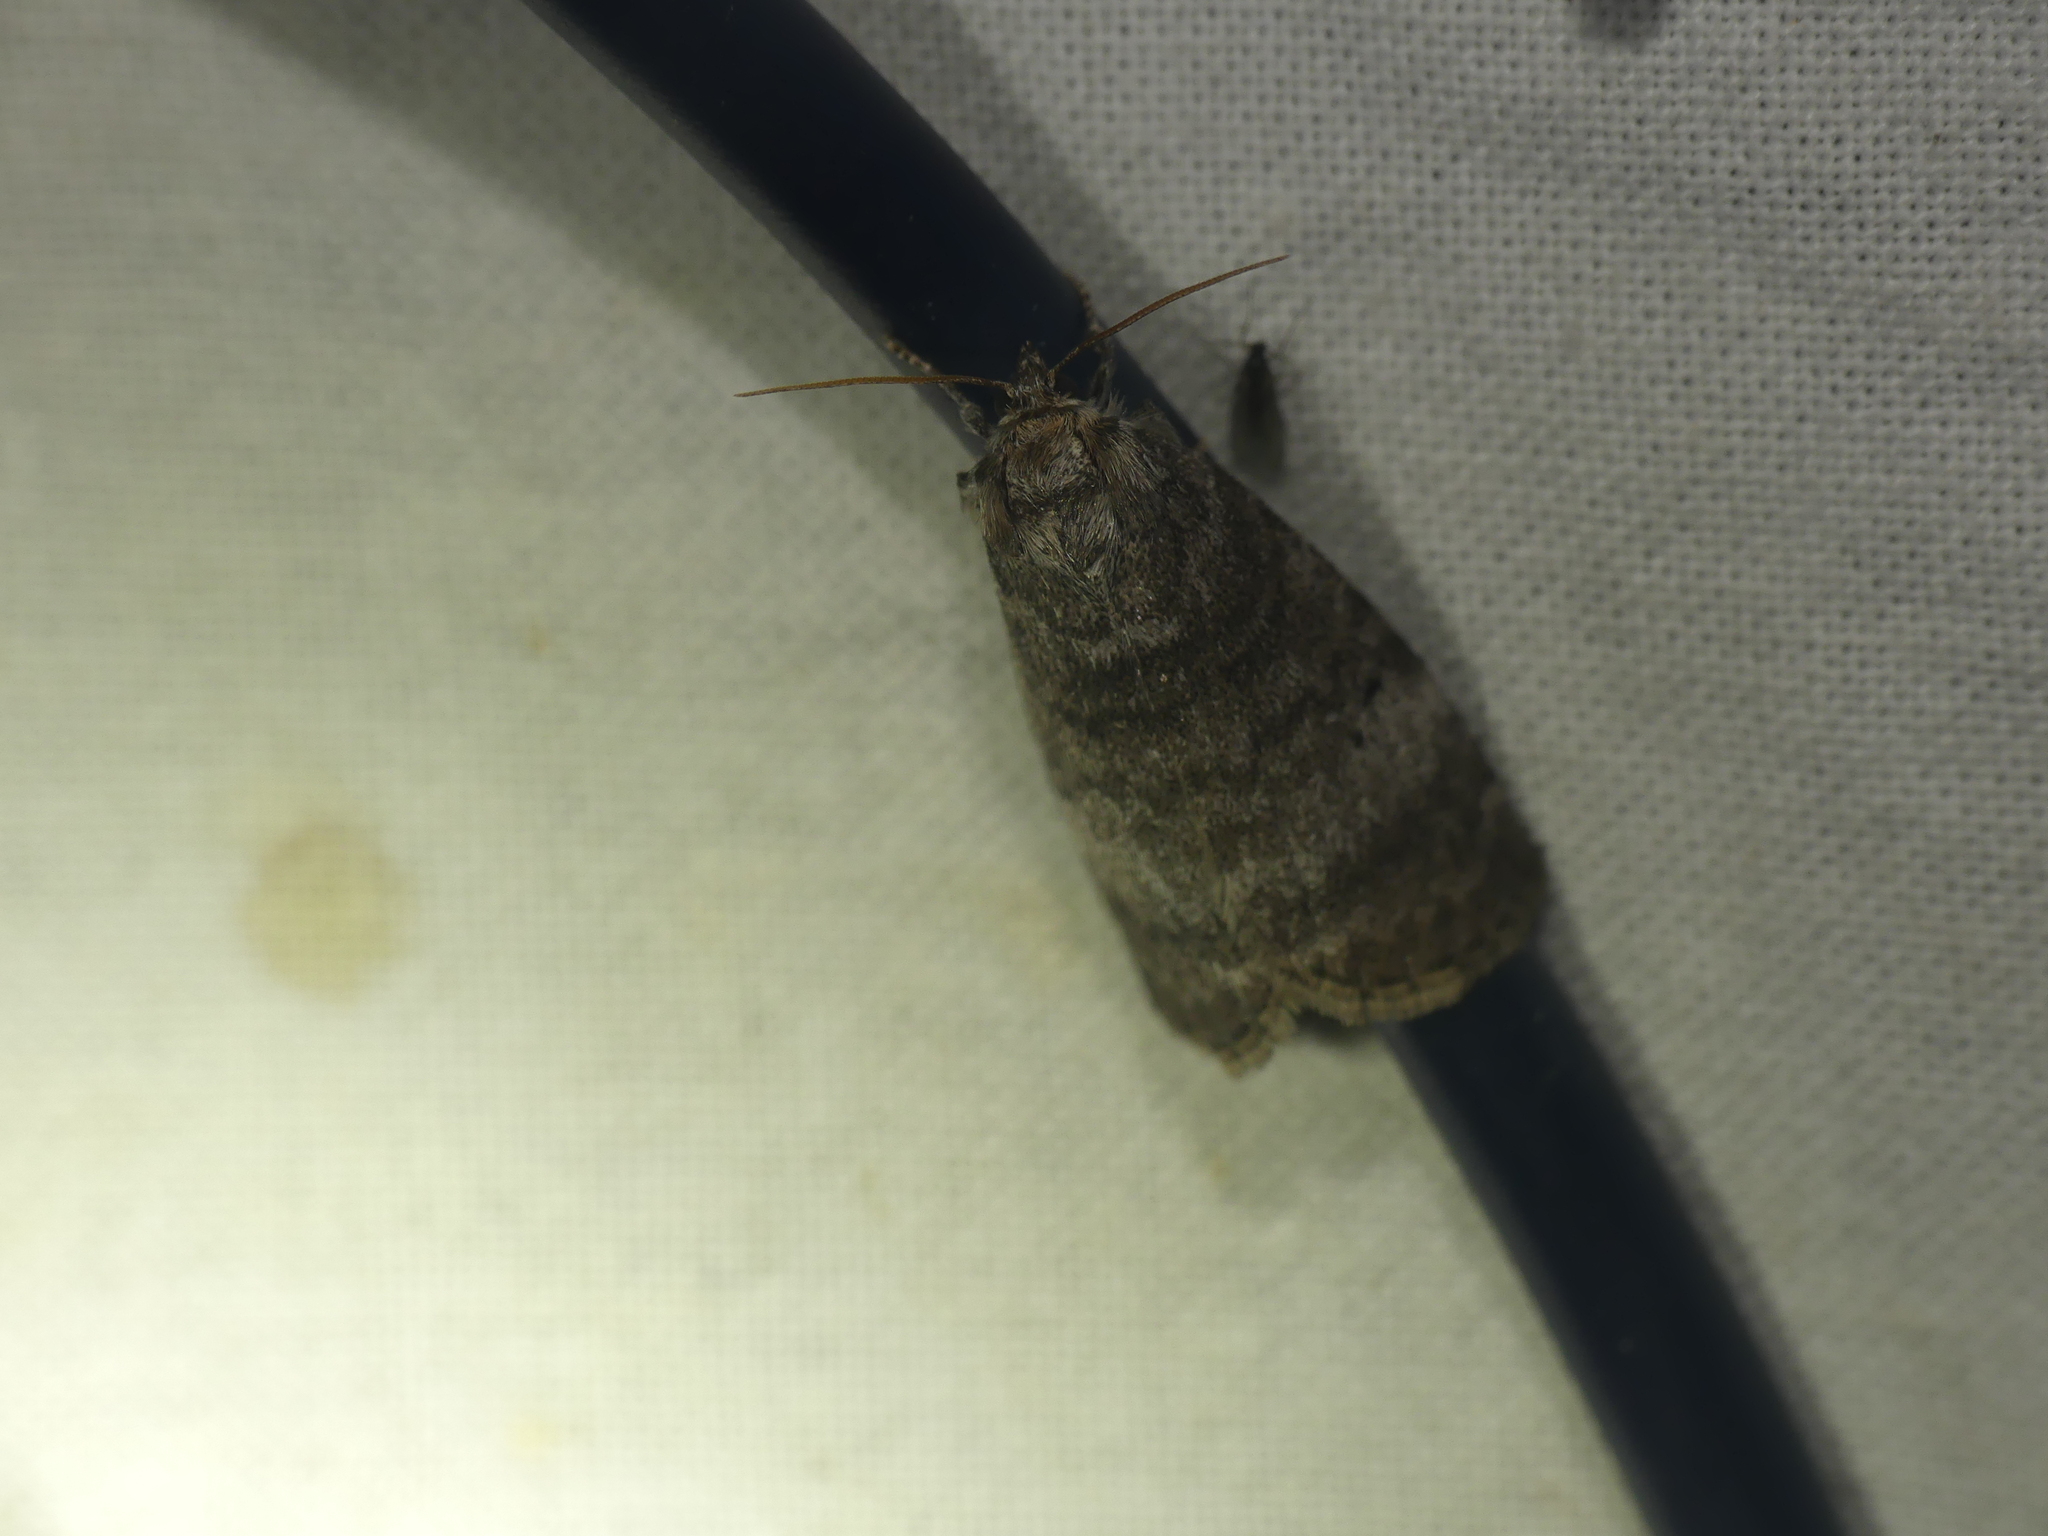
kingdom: Animalia
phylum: Arthropoda
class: Insecta
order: Lepidoptera
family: Drepanidae
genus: Ochropacha
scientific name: Ochropacha duplaris
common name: Common lutestring
